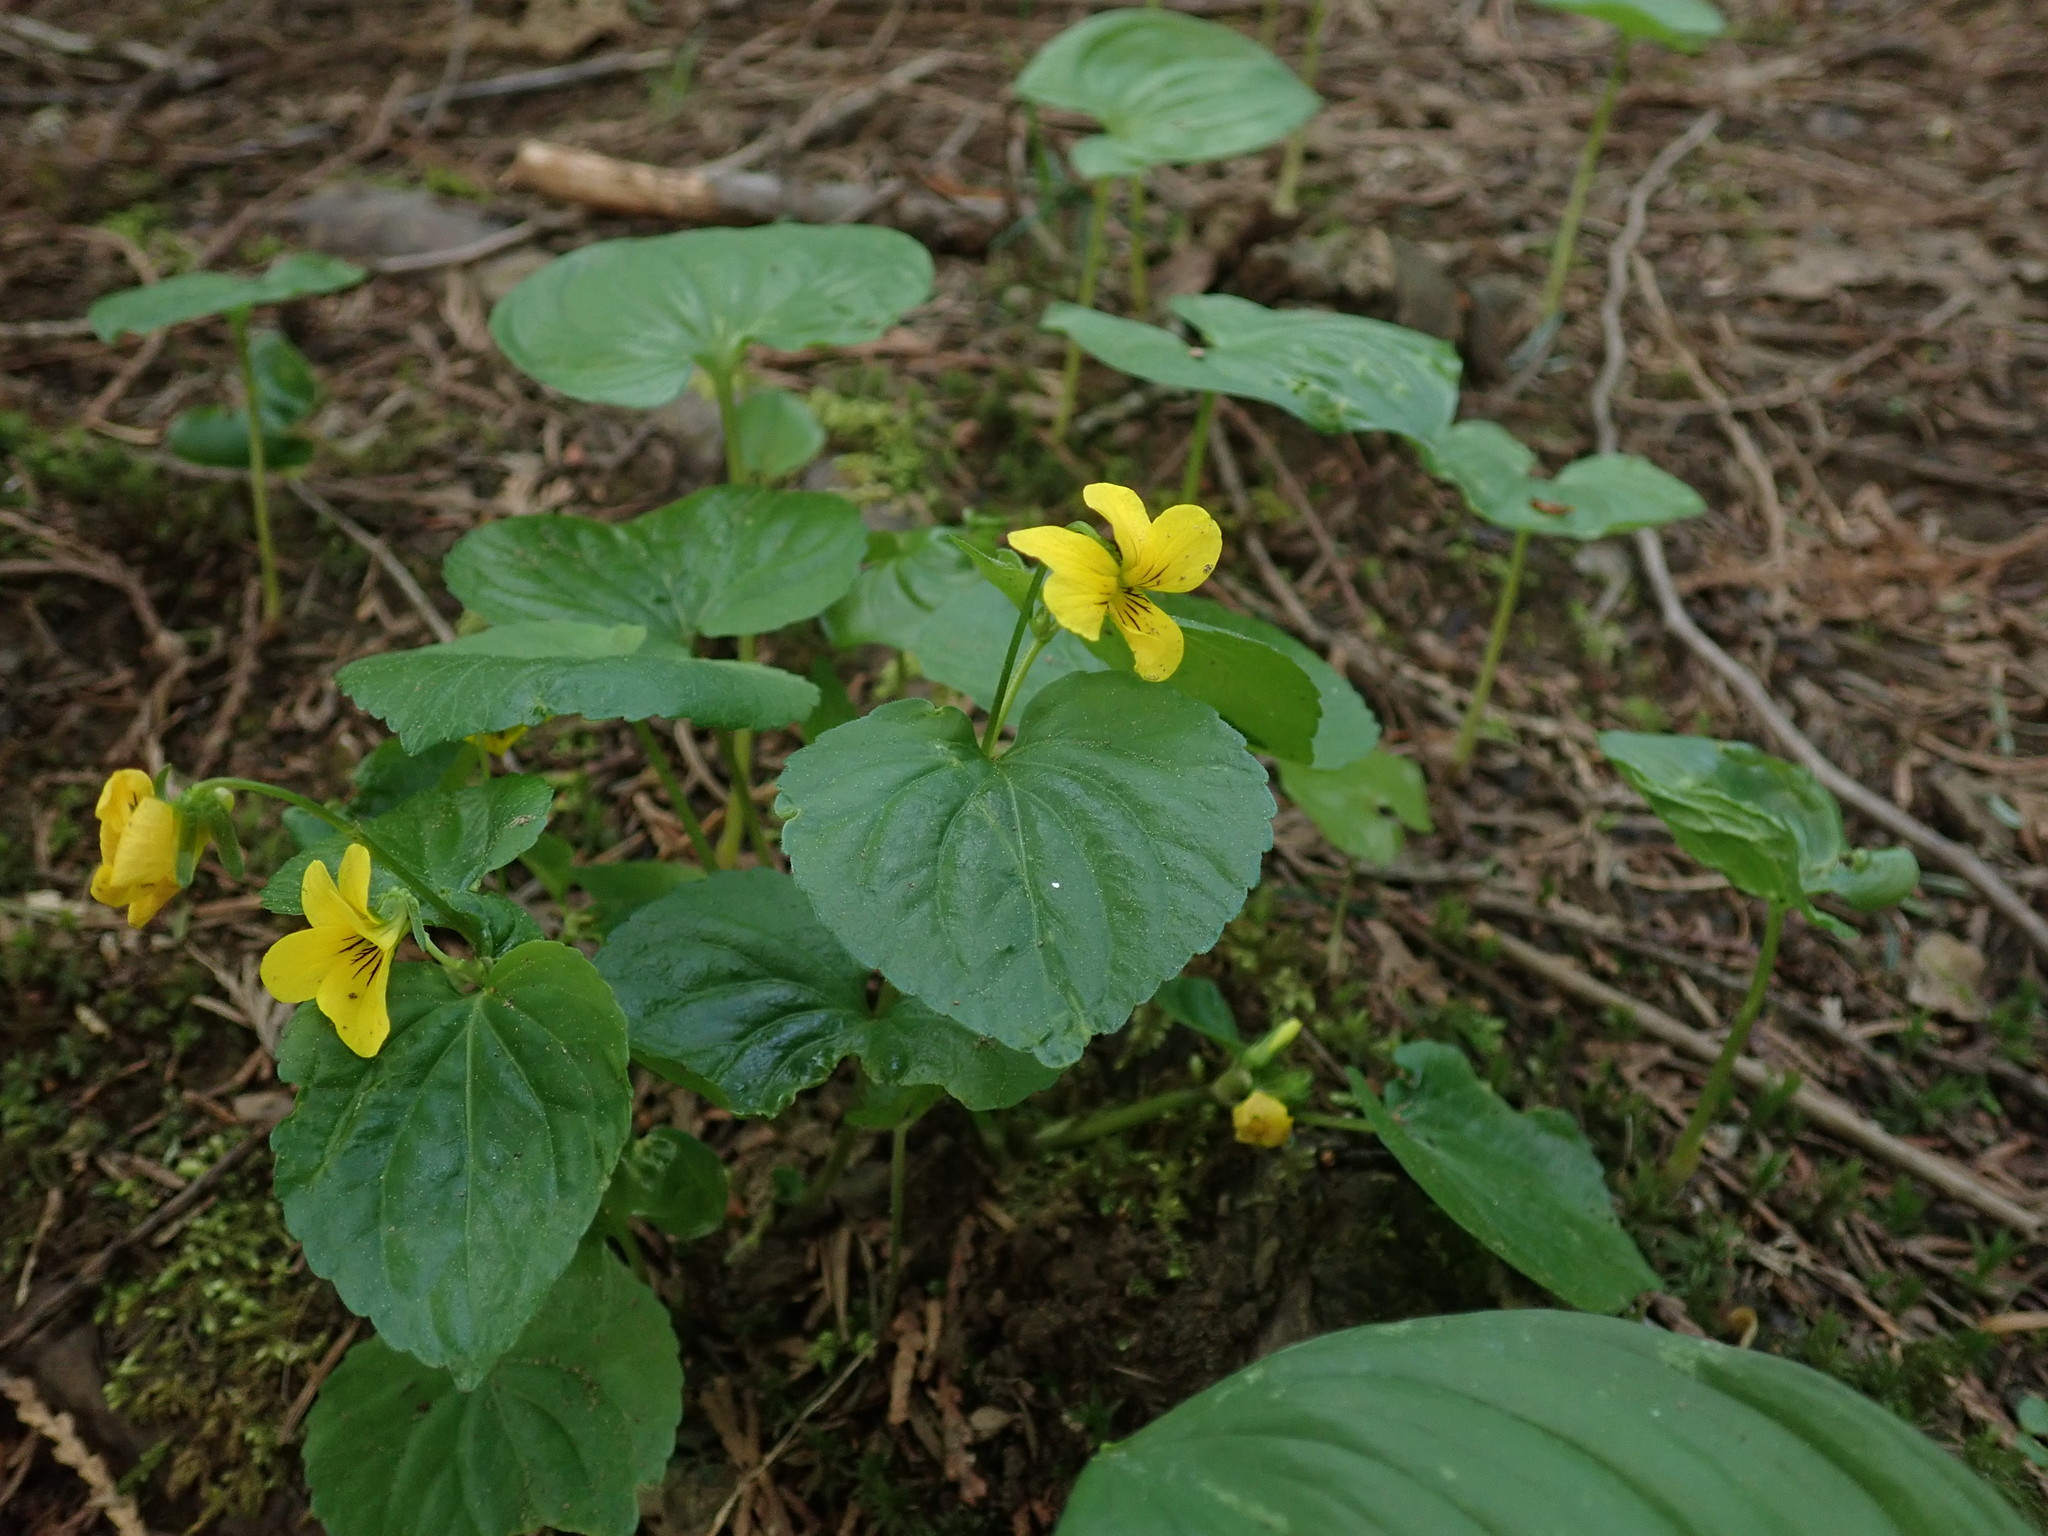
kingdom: Plantae
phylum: Tracheophyta
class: Magnoliopsida
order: Malpighiales
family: Violaceae
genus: Viola
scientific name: Viola glabella
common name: Stream violet
